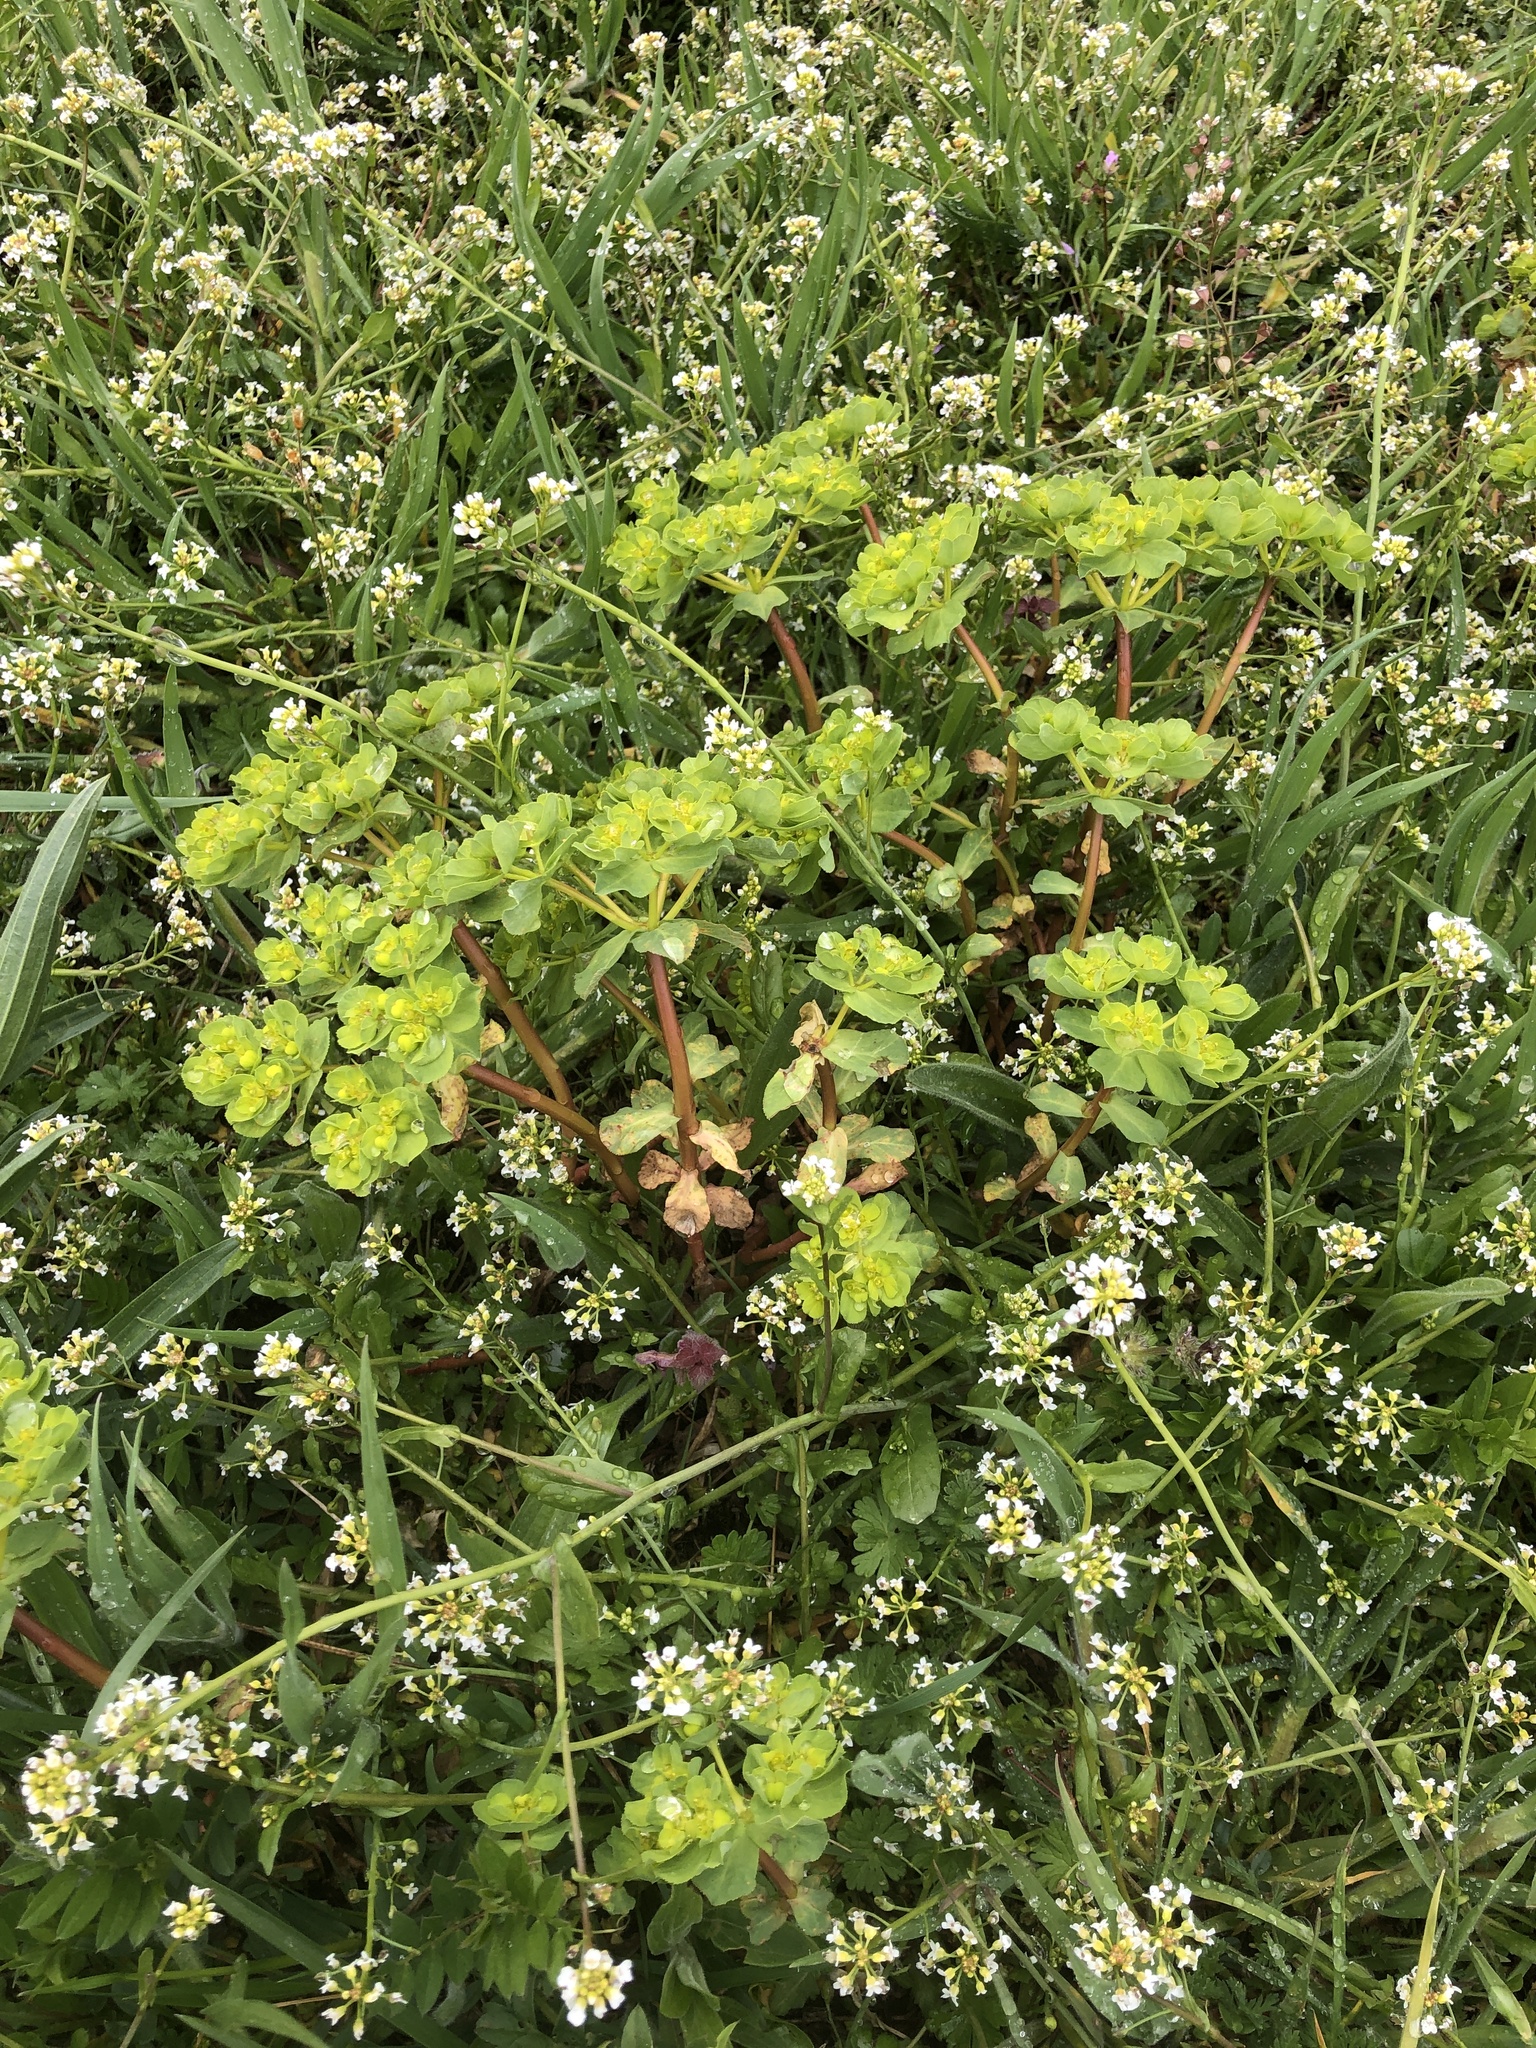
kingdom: Plantae
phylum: Tracheophyta
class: Magnoliopsida
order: Malpighiales
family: Euphorbiaceae
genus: Euphorbia
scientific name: Euphorbia helioscopia
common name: Sun spurge
